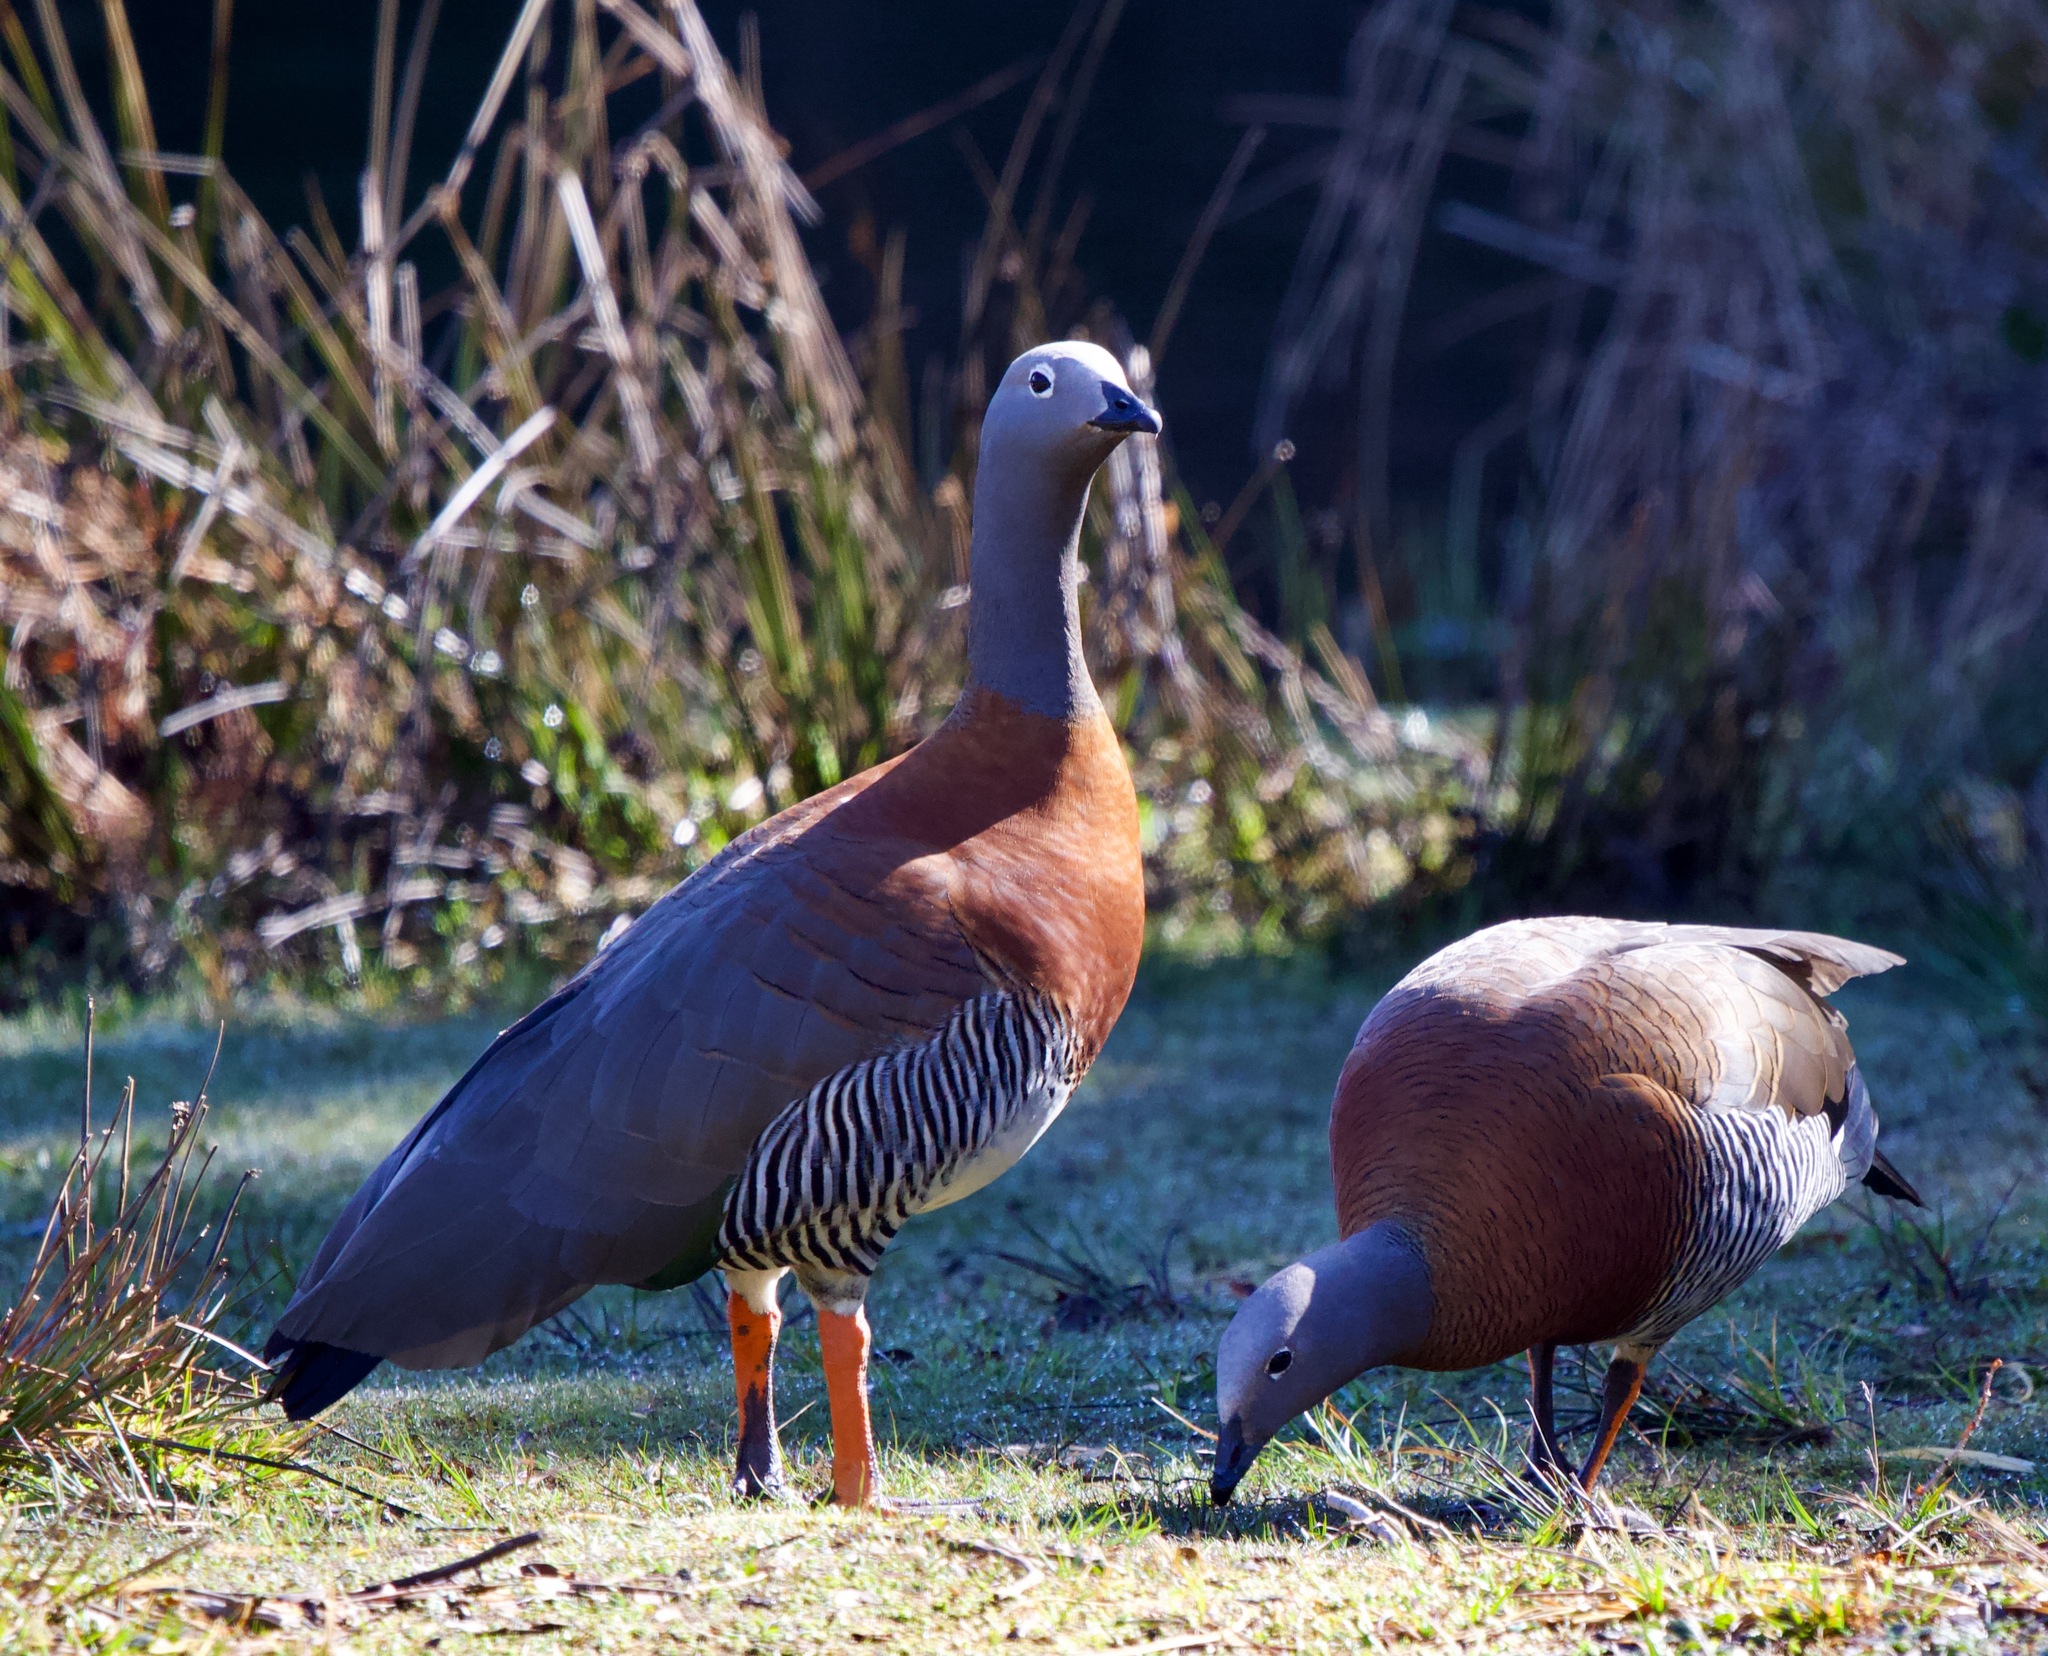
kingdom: Animalia
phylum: Chordata
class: Aves
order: Anseriformes
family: Anatidae
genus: Chloephaga
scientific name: Chloephaga poliocephala
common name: Ashy-headed goose
